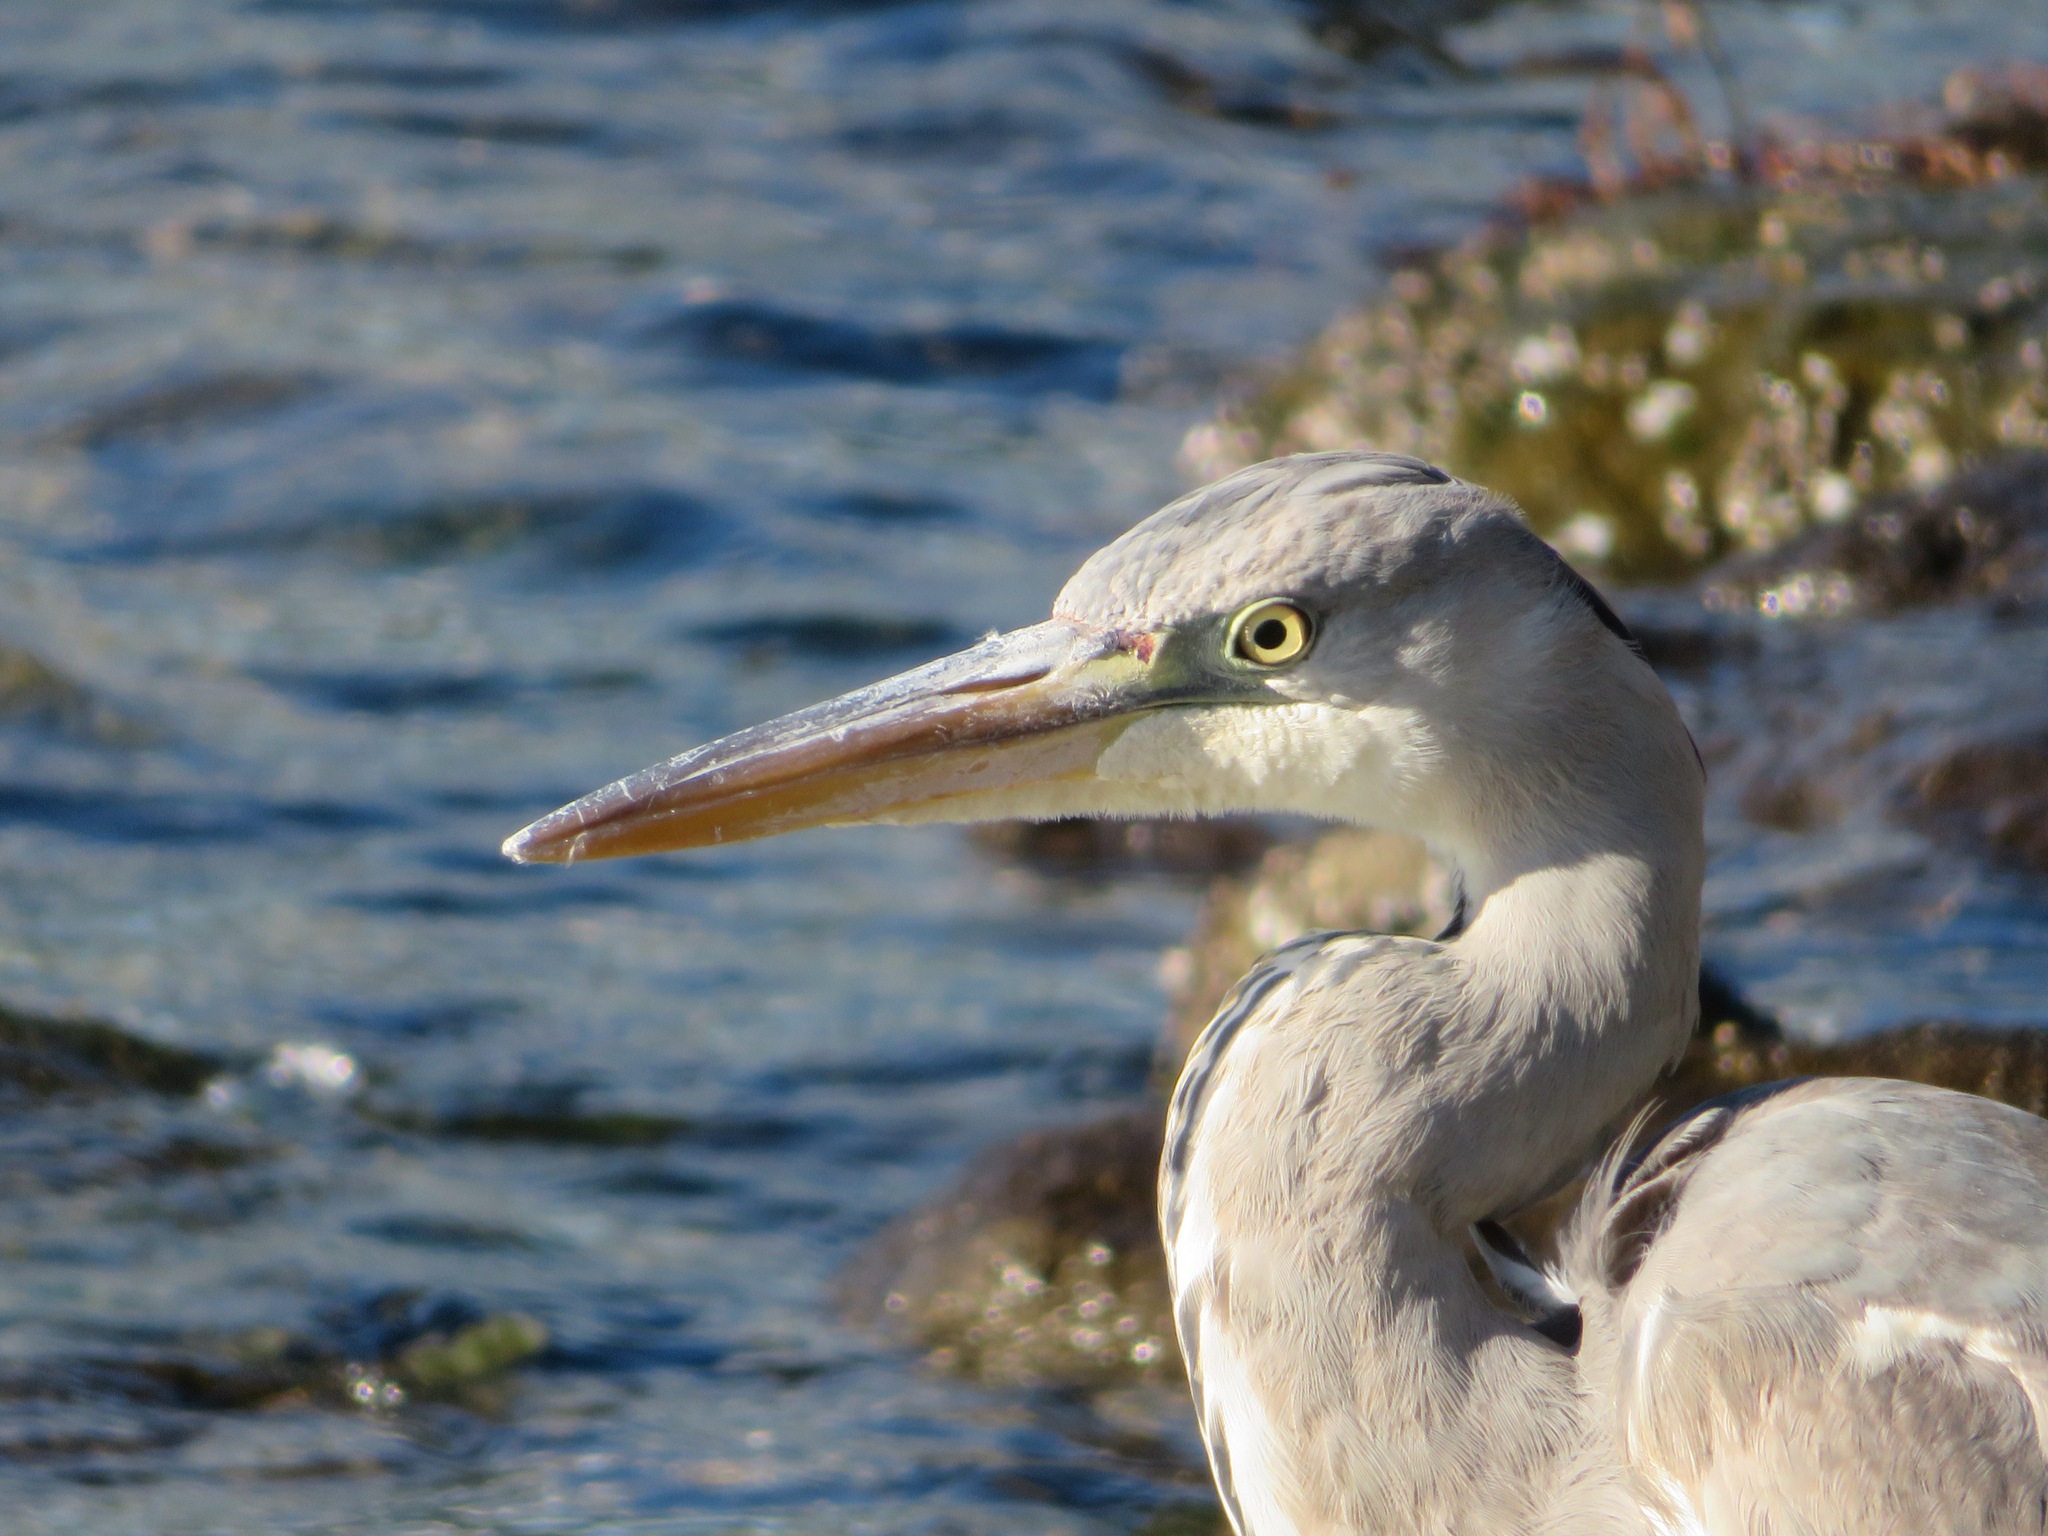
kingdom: Animalia
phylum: Chordata
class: Aves
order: Pelecaniformes
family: Ardeidae
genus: Ardea
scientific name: Ardea cinerea
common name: Grey heron
